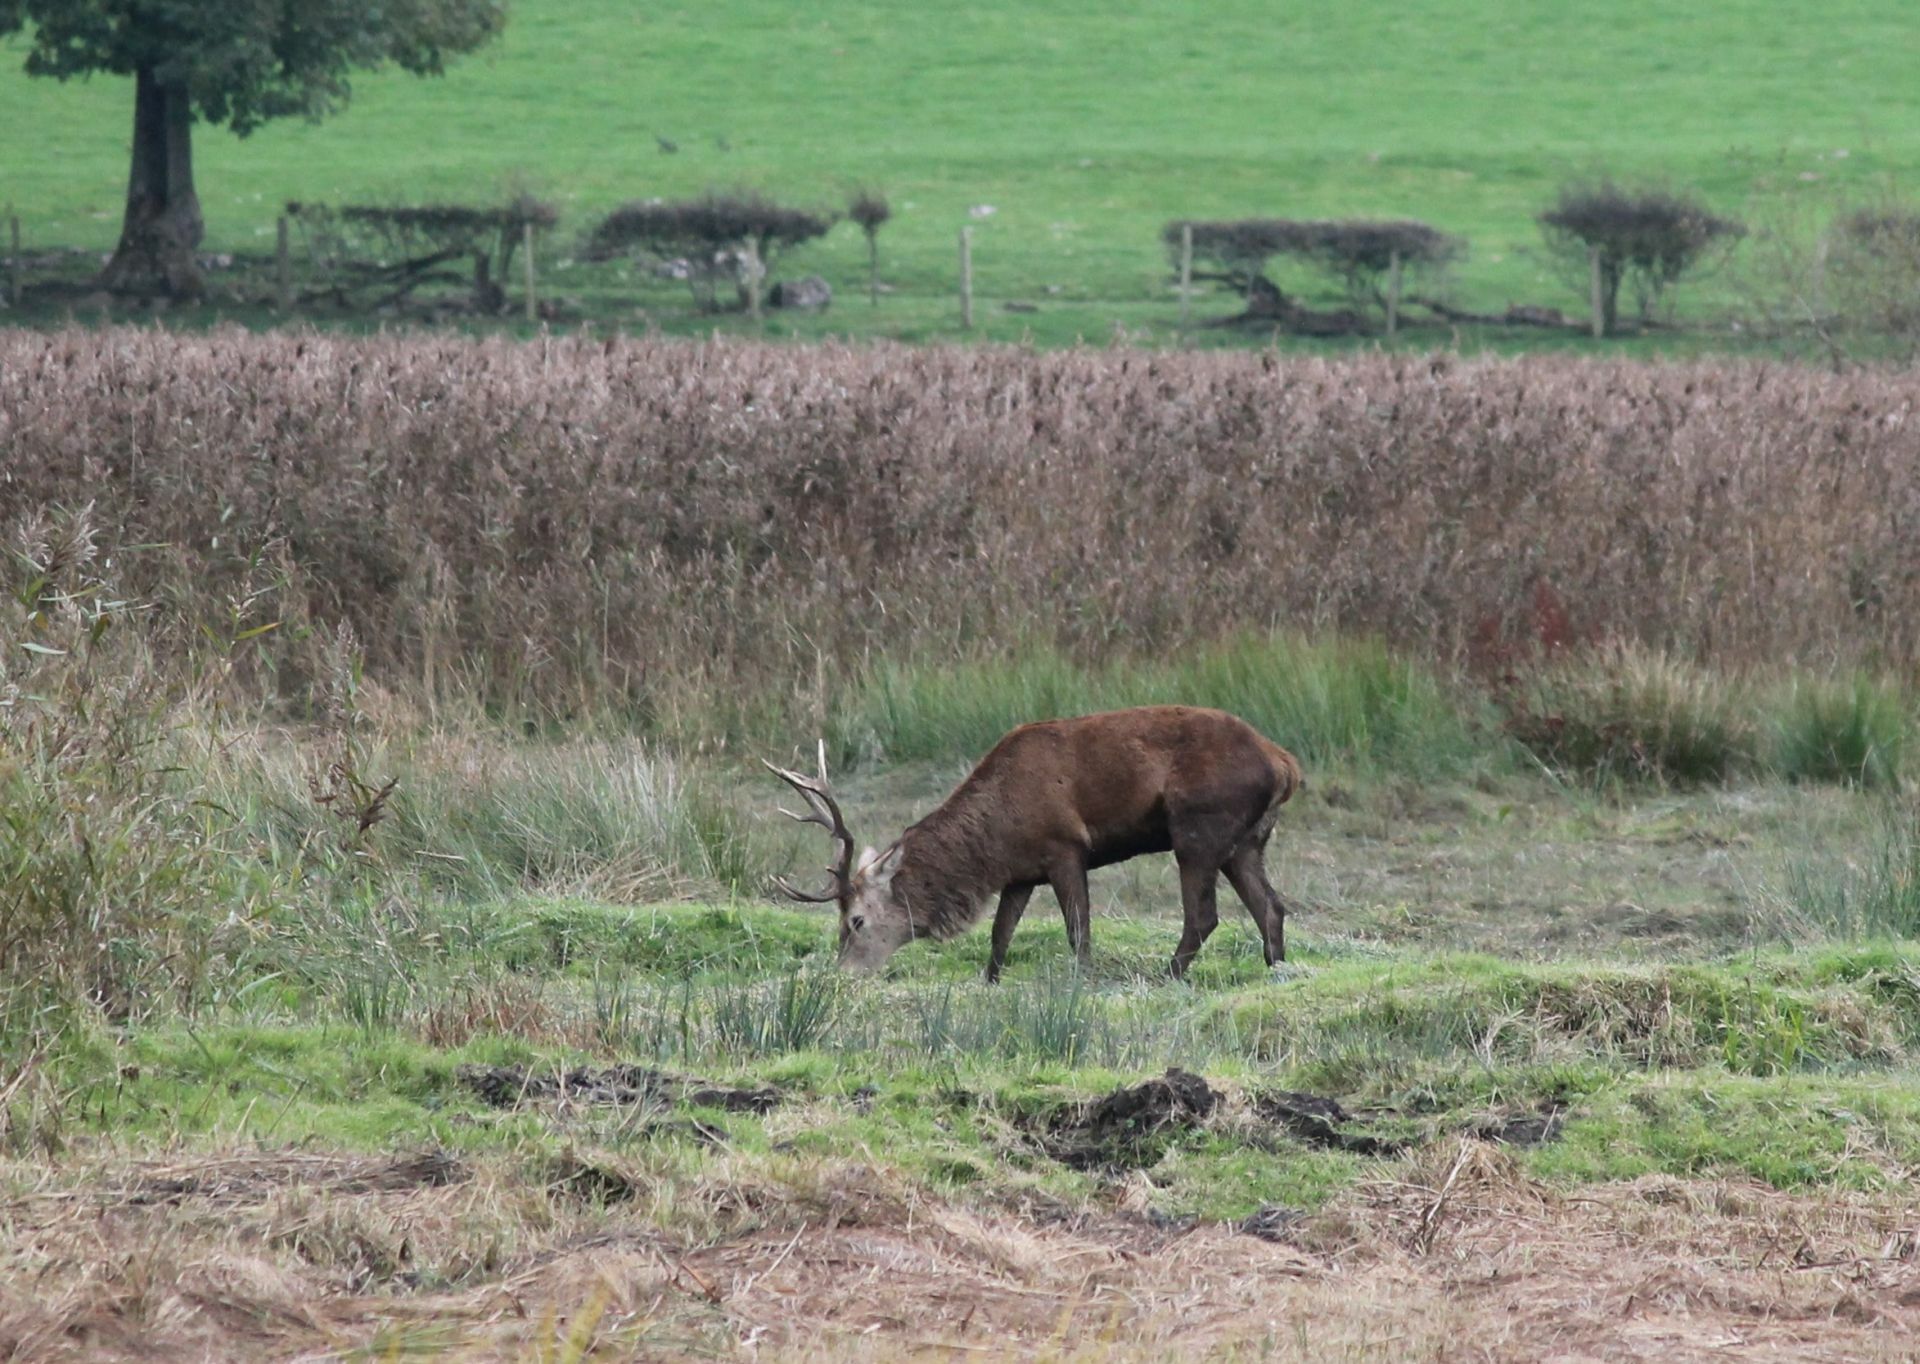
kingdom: Animalia
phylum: Chordata
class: Mammalia
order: Artiodactyla
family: Cervidae
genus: Cervus
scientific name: Cervus elaphus
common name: Red deer
